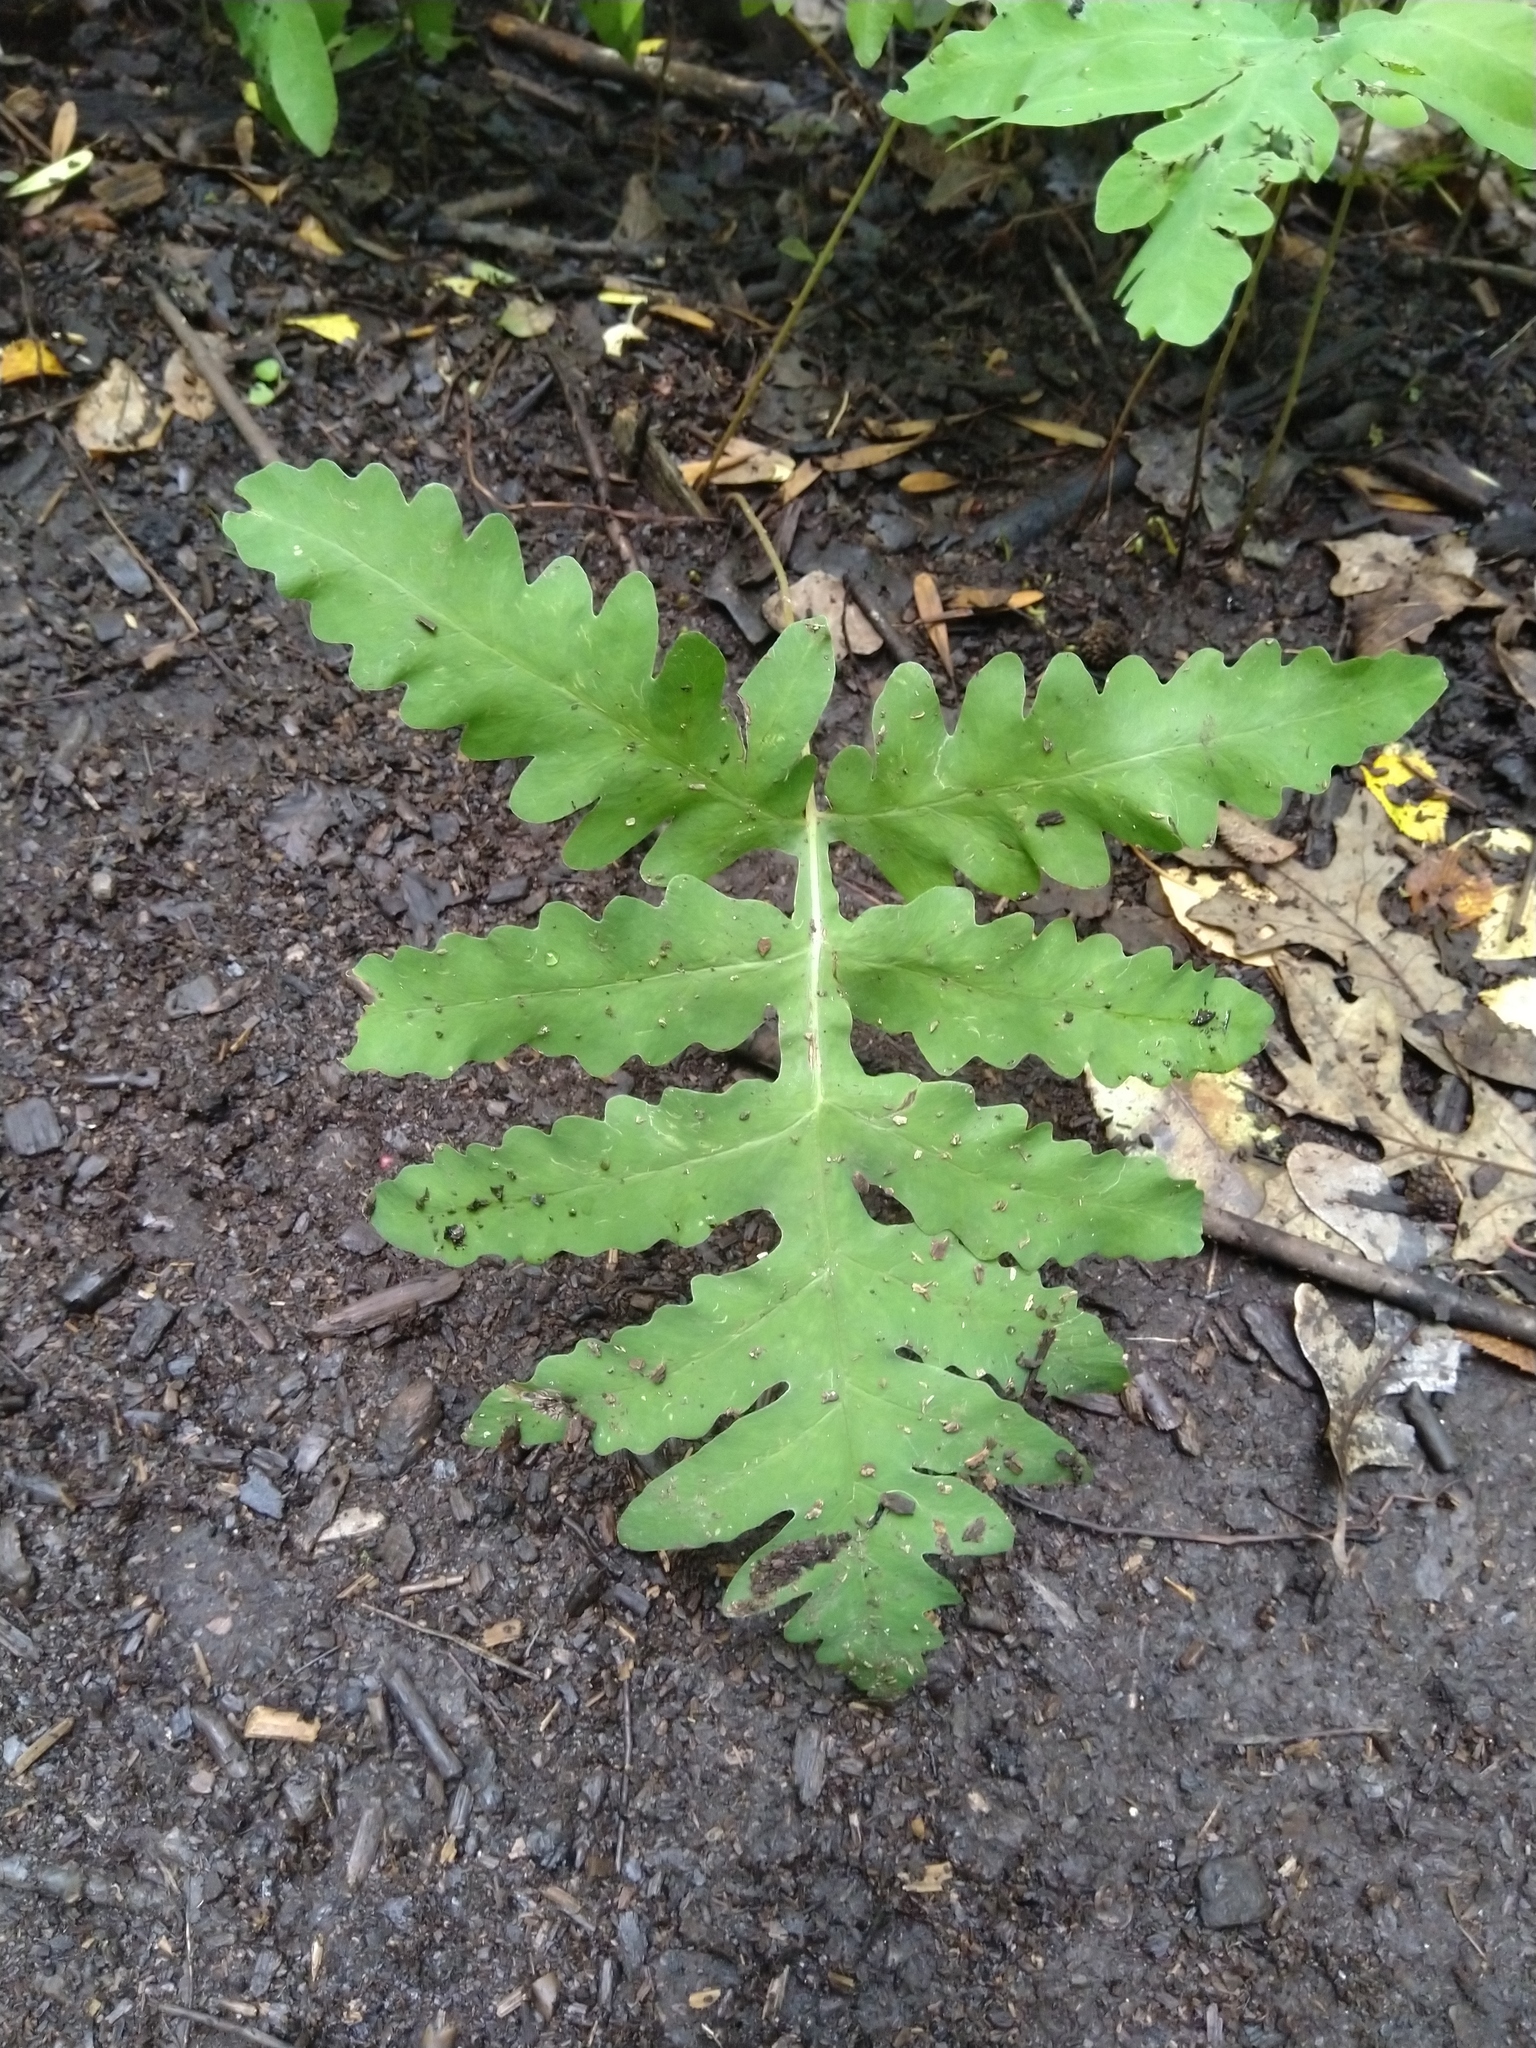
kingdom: Plantae
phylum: Tracheophyta
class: Polypodiopsida
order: Polypodiales
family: Onocleaceae
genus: Onoclea
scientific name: Onoclea sensibilis
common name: Sensitive fern
